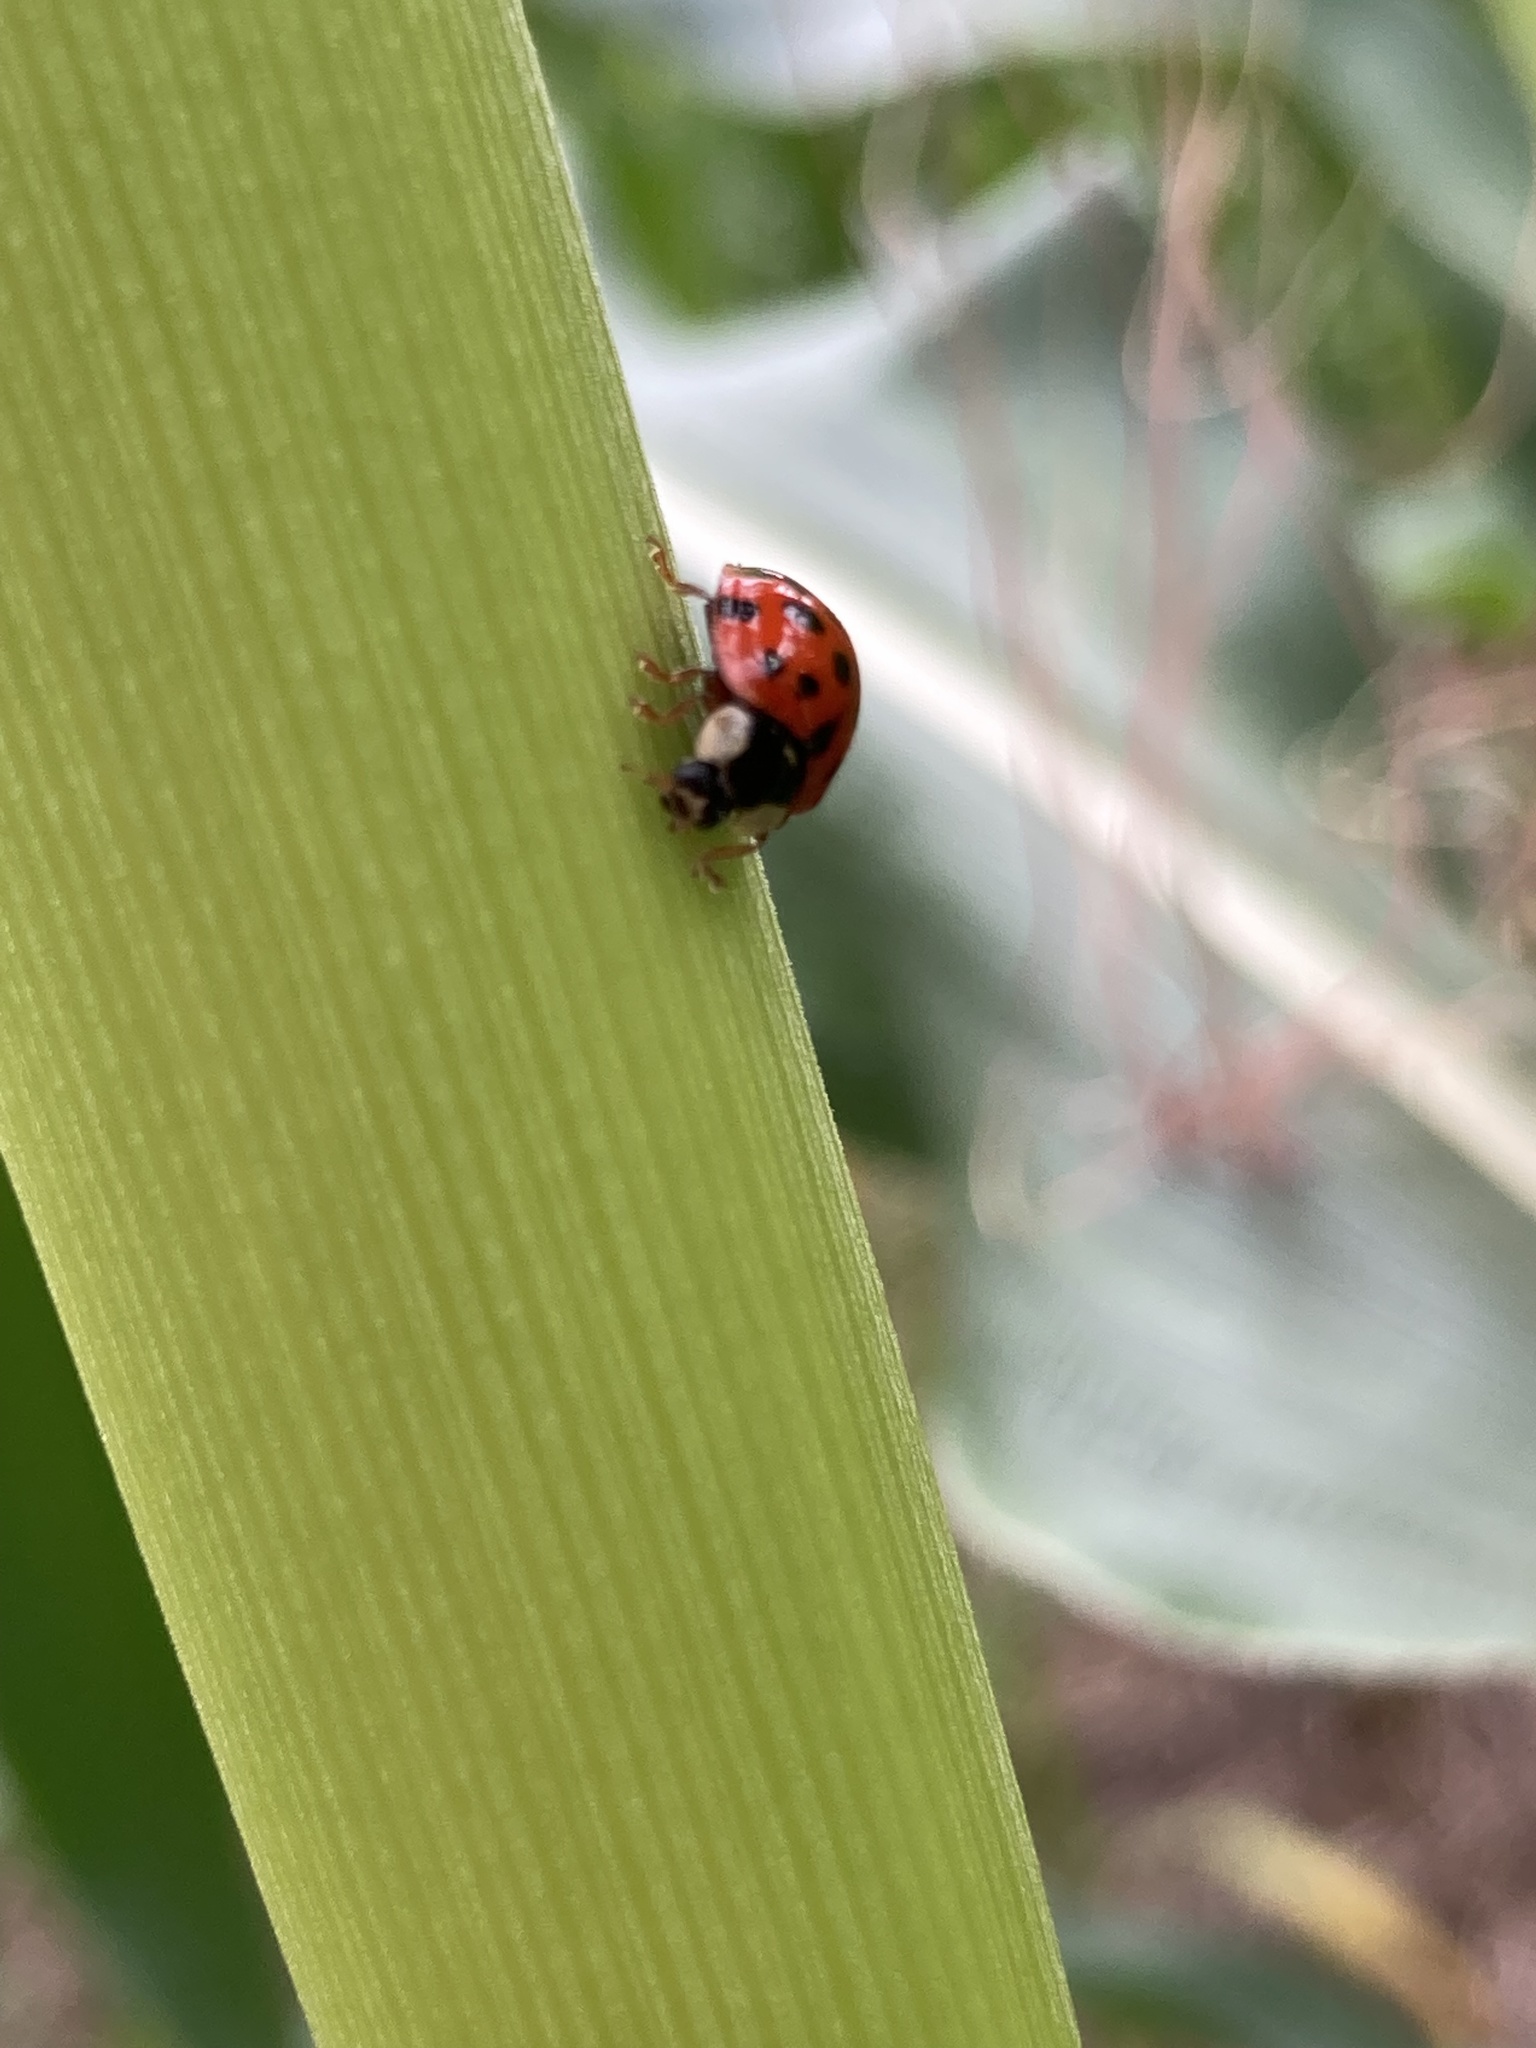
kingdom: Animalia
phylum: Arthropoda
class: Insecta
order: Coleoptera
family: Coccinellidae
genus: Harmonia
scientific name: Harmonia axyridis
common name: Harlequin ladybird
